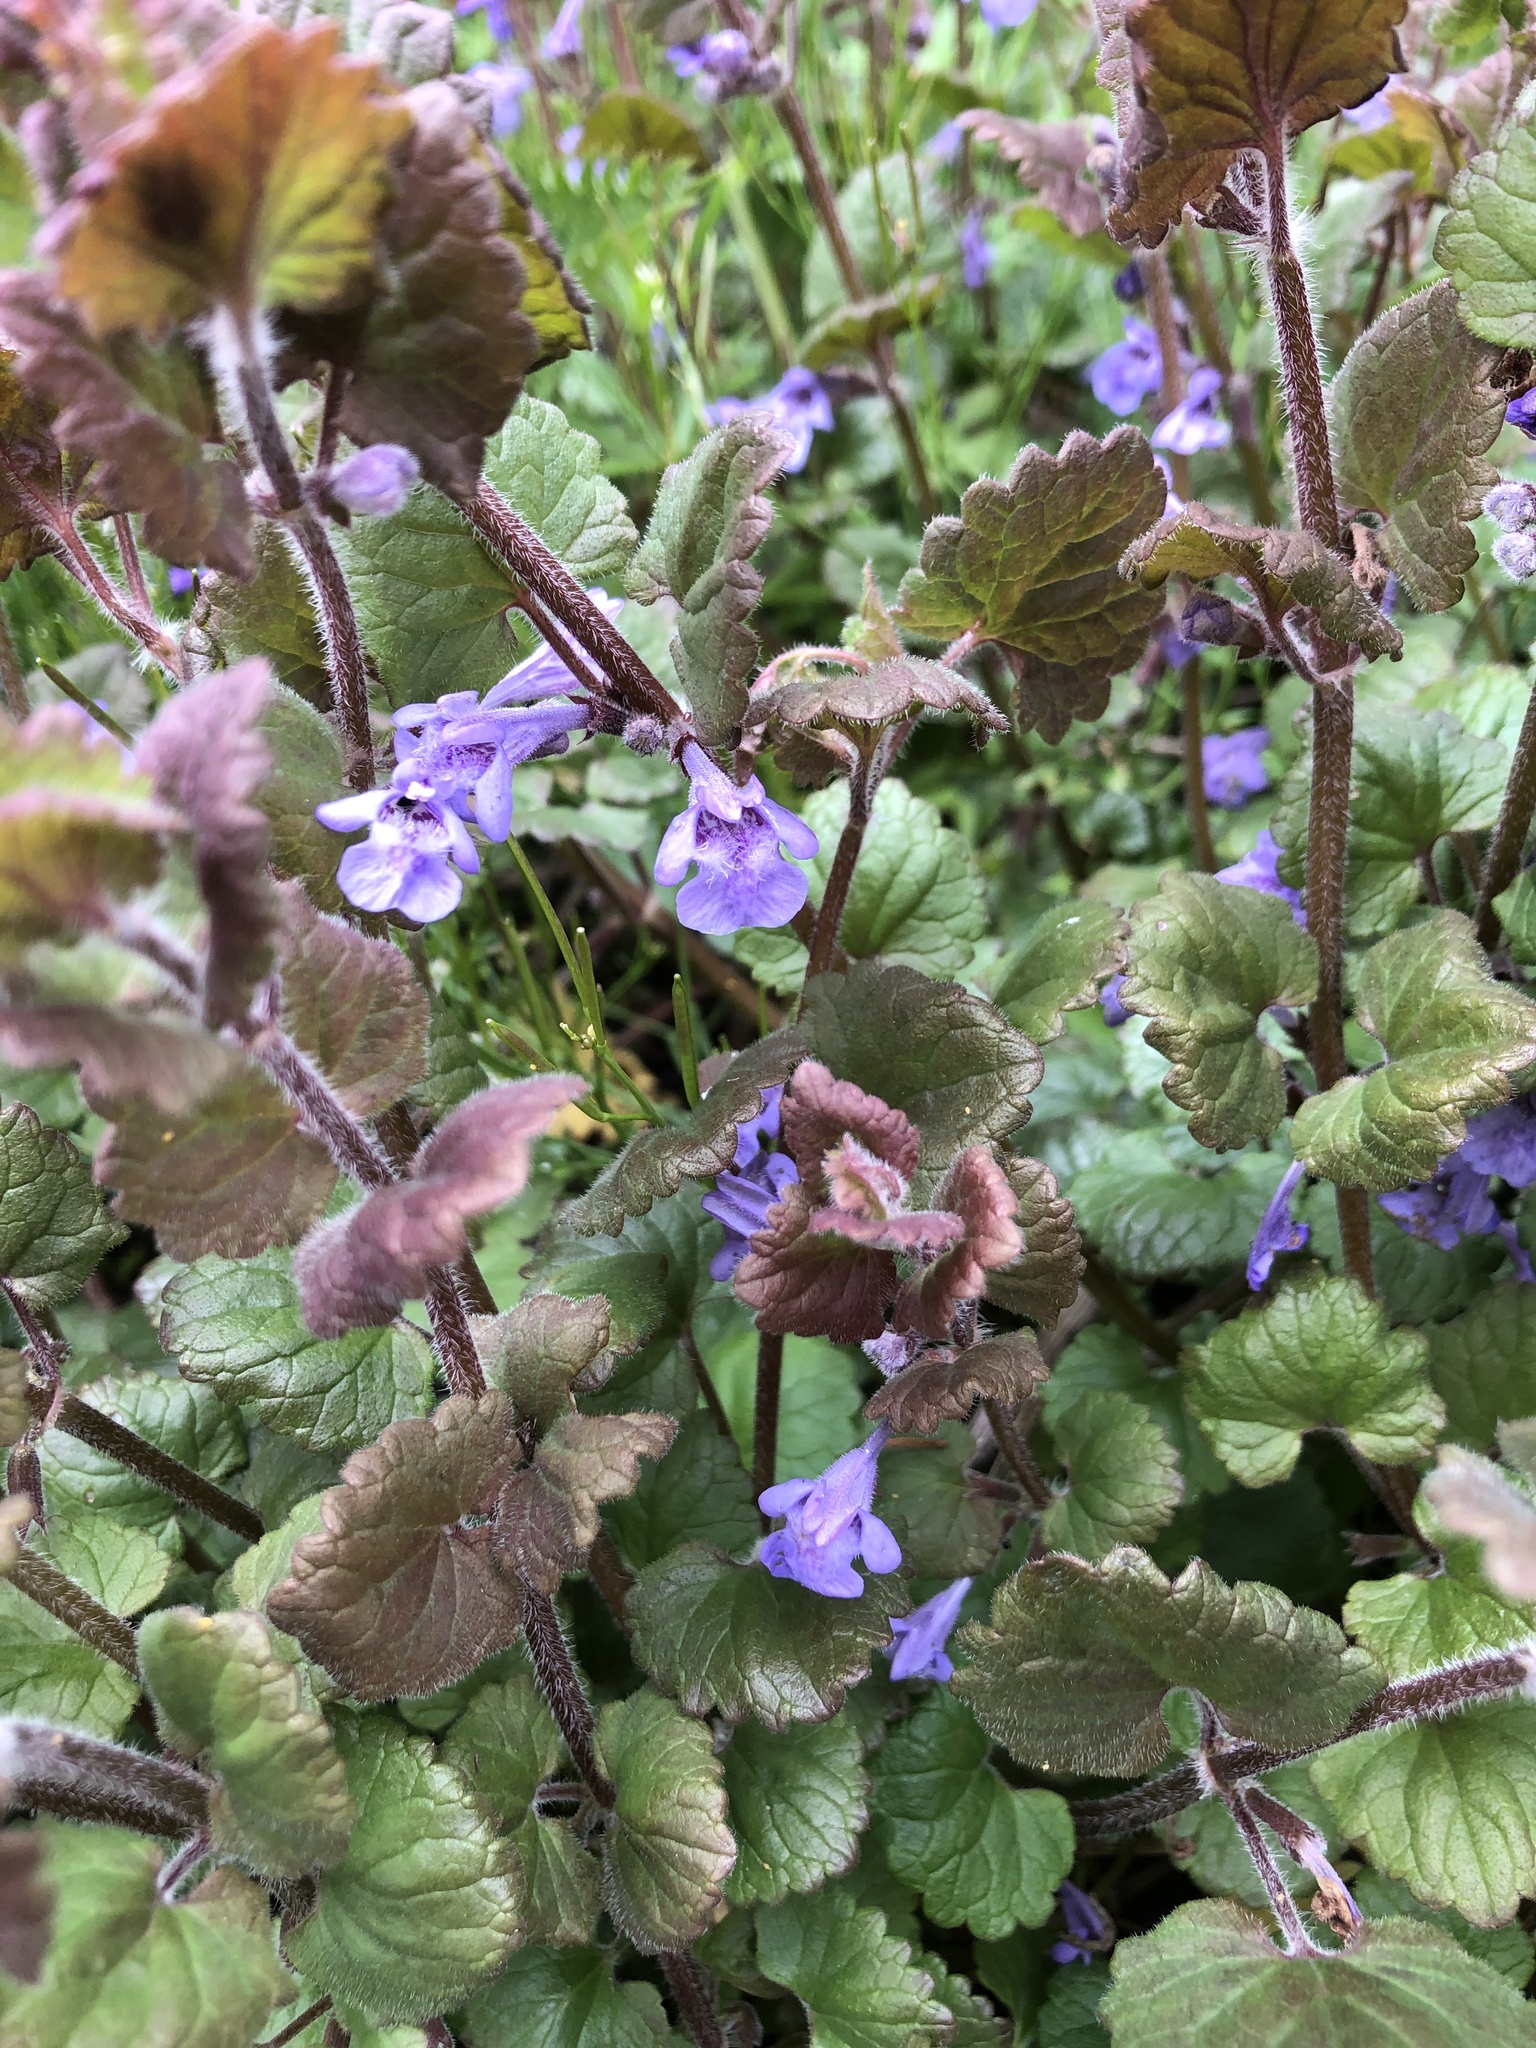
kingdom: Plantae
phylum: Tracheophyta
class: Magnoliopsida
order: Lamiales
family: Lamiaceae
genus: Glechoma
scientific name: Glechoma hederacea
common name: Ground ivy
